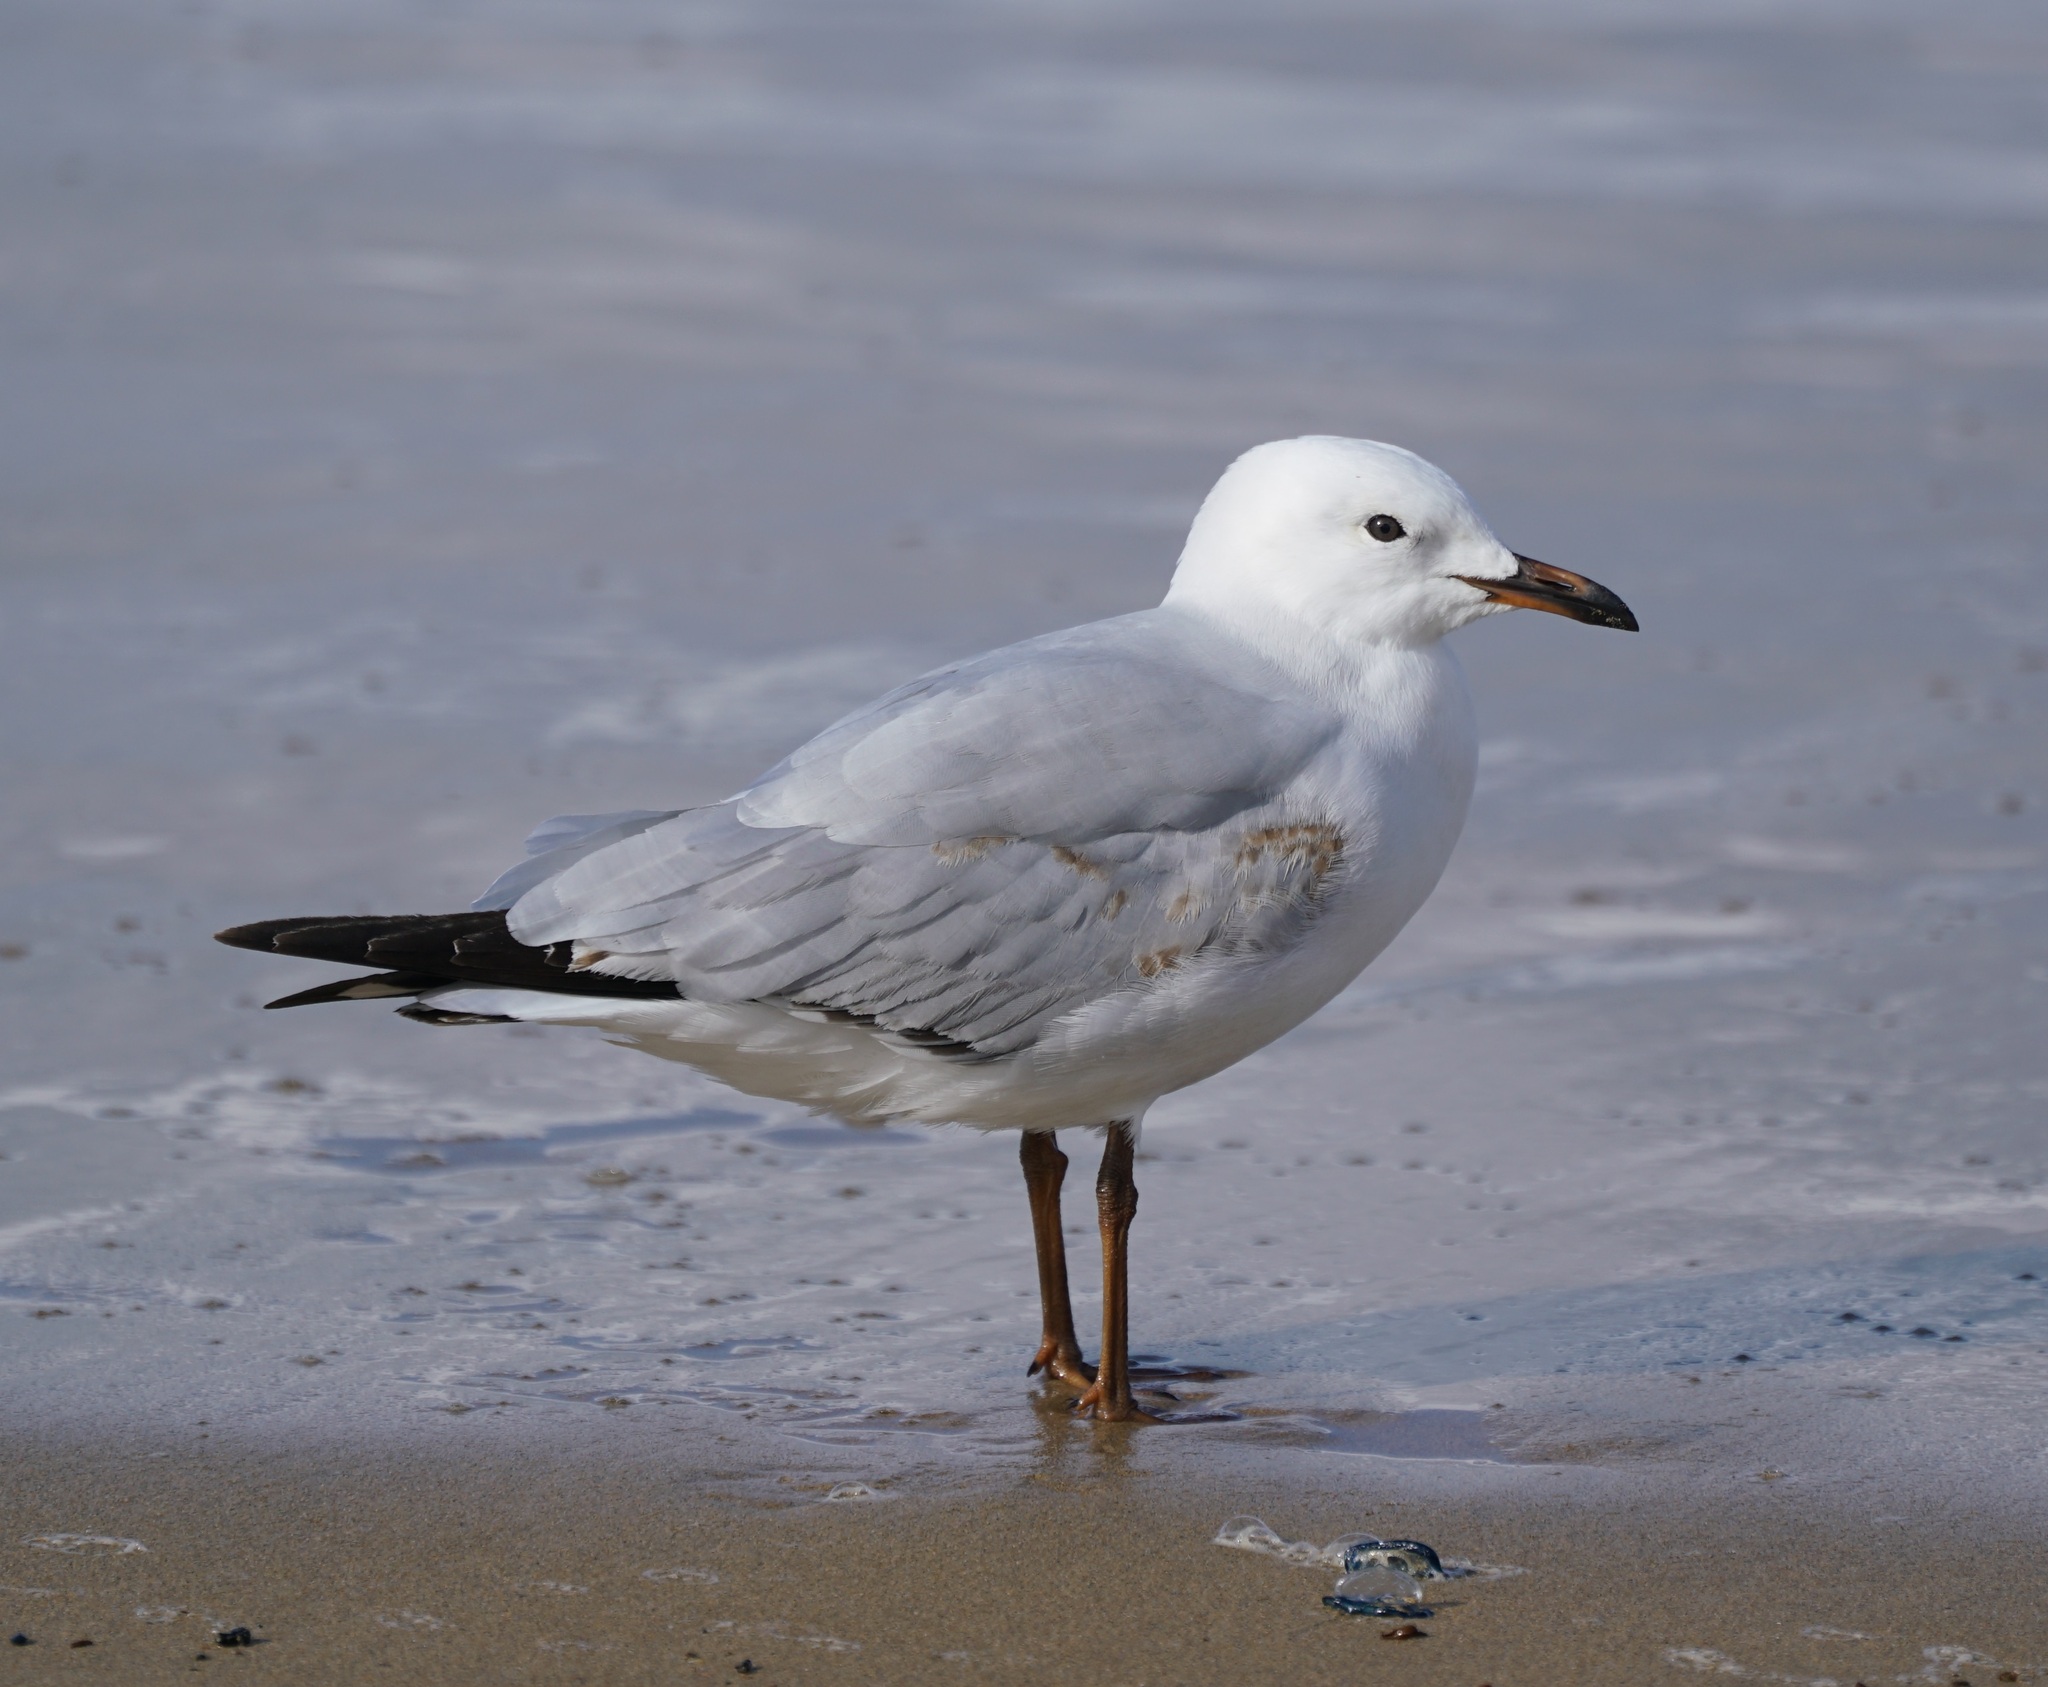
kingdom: Animalia
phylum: Chordata
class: Aves
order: Charadriiformes
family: Laridae
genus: Chroicocephalus
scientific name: Chroicocephalus novaehollandiae
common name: Silver gull
